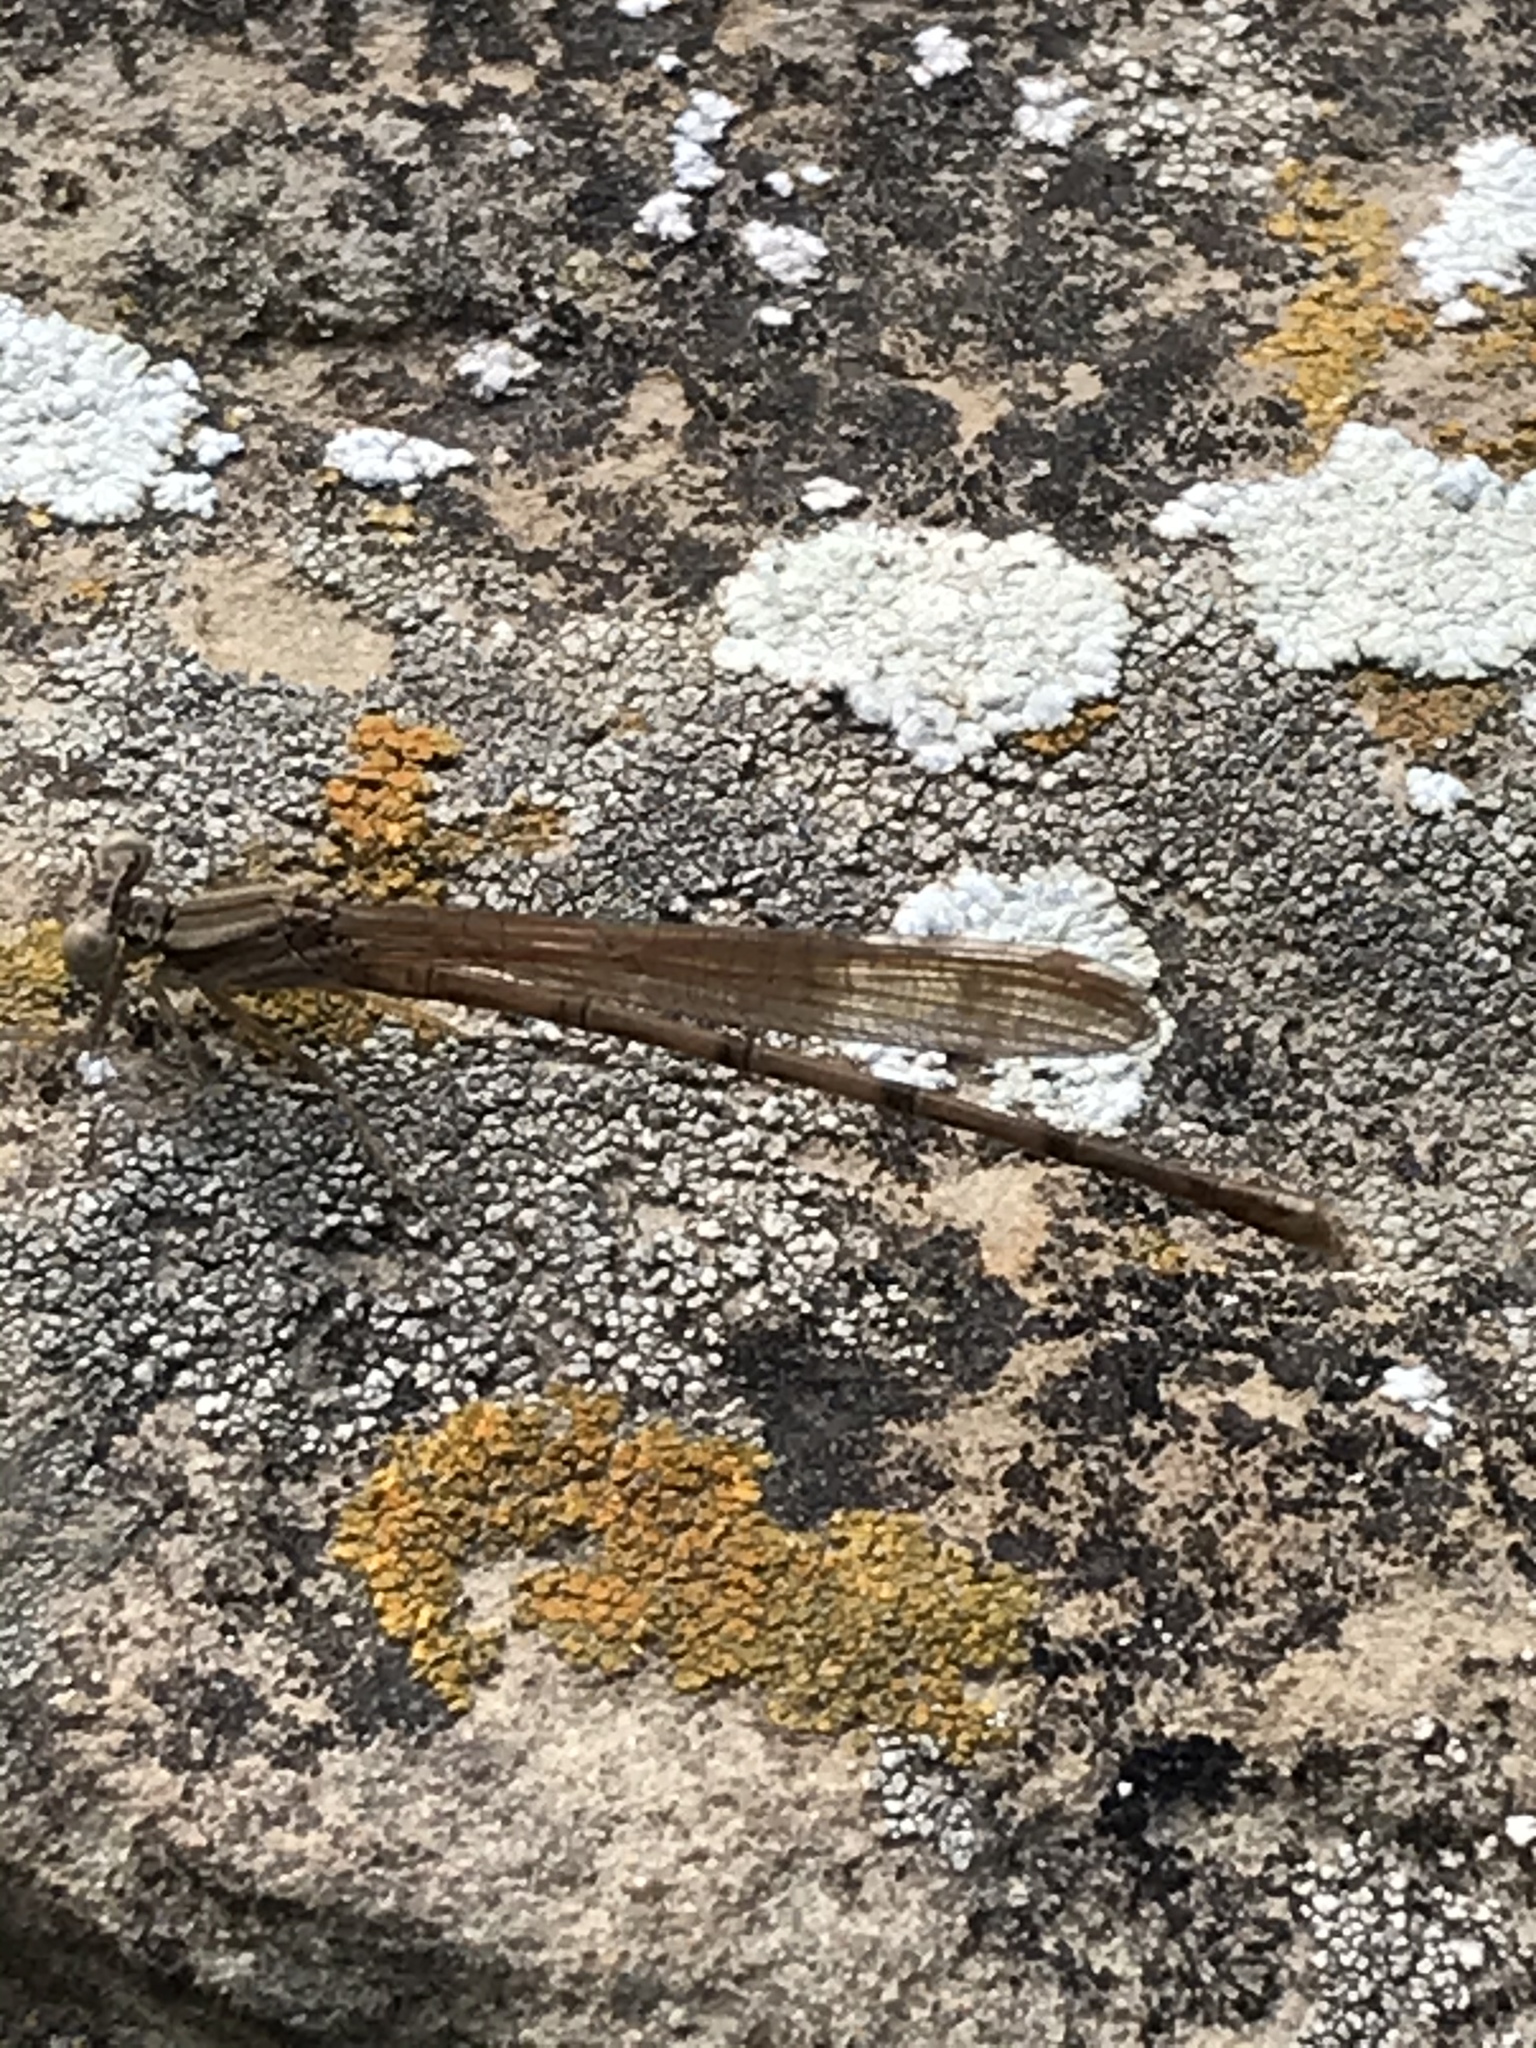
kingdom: Animalia
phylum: Arthropoda
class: Insecta
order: Odonata
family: Coenagrionidae
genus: Argia
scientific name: Argia sedula
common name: Blue-ringed dancer
